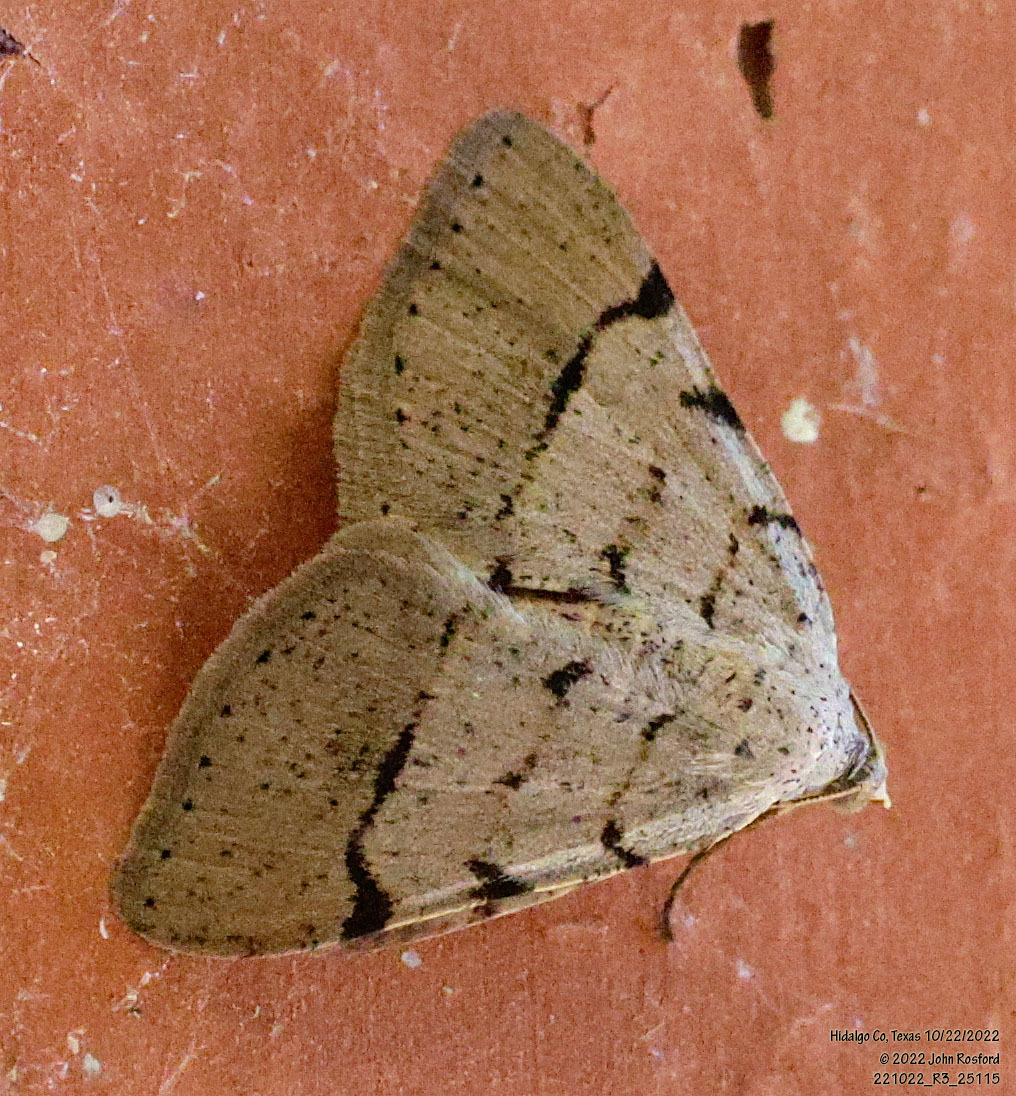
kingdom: Animalia
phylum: Arthropoda
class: Insecta
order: Lepidoptera
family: Geometridae
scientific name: Geometridae
